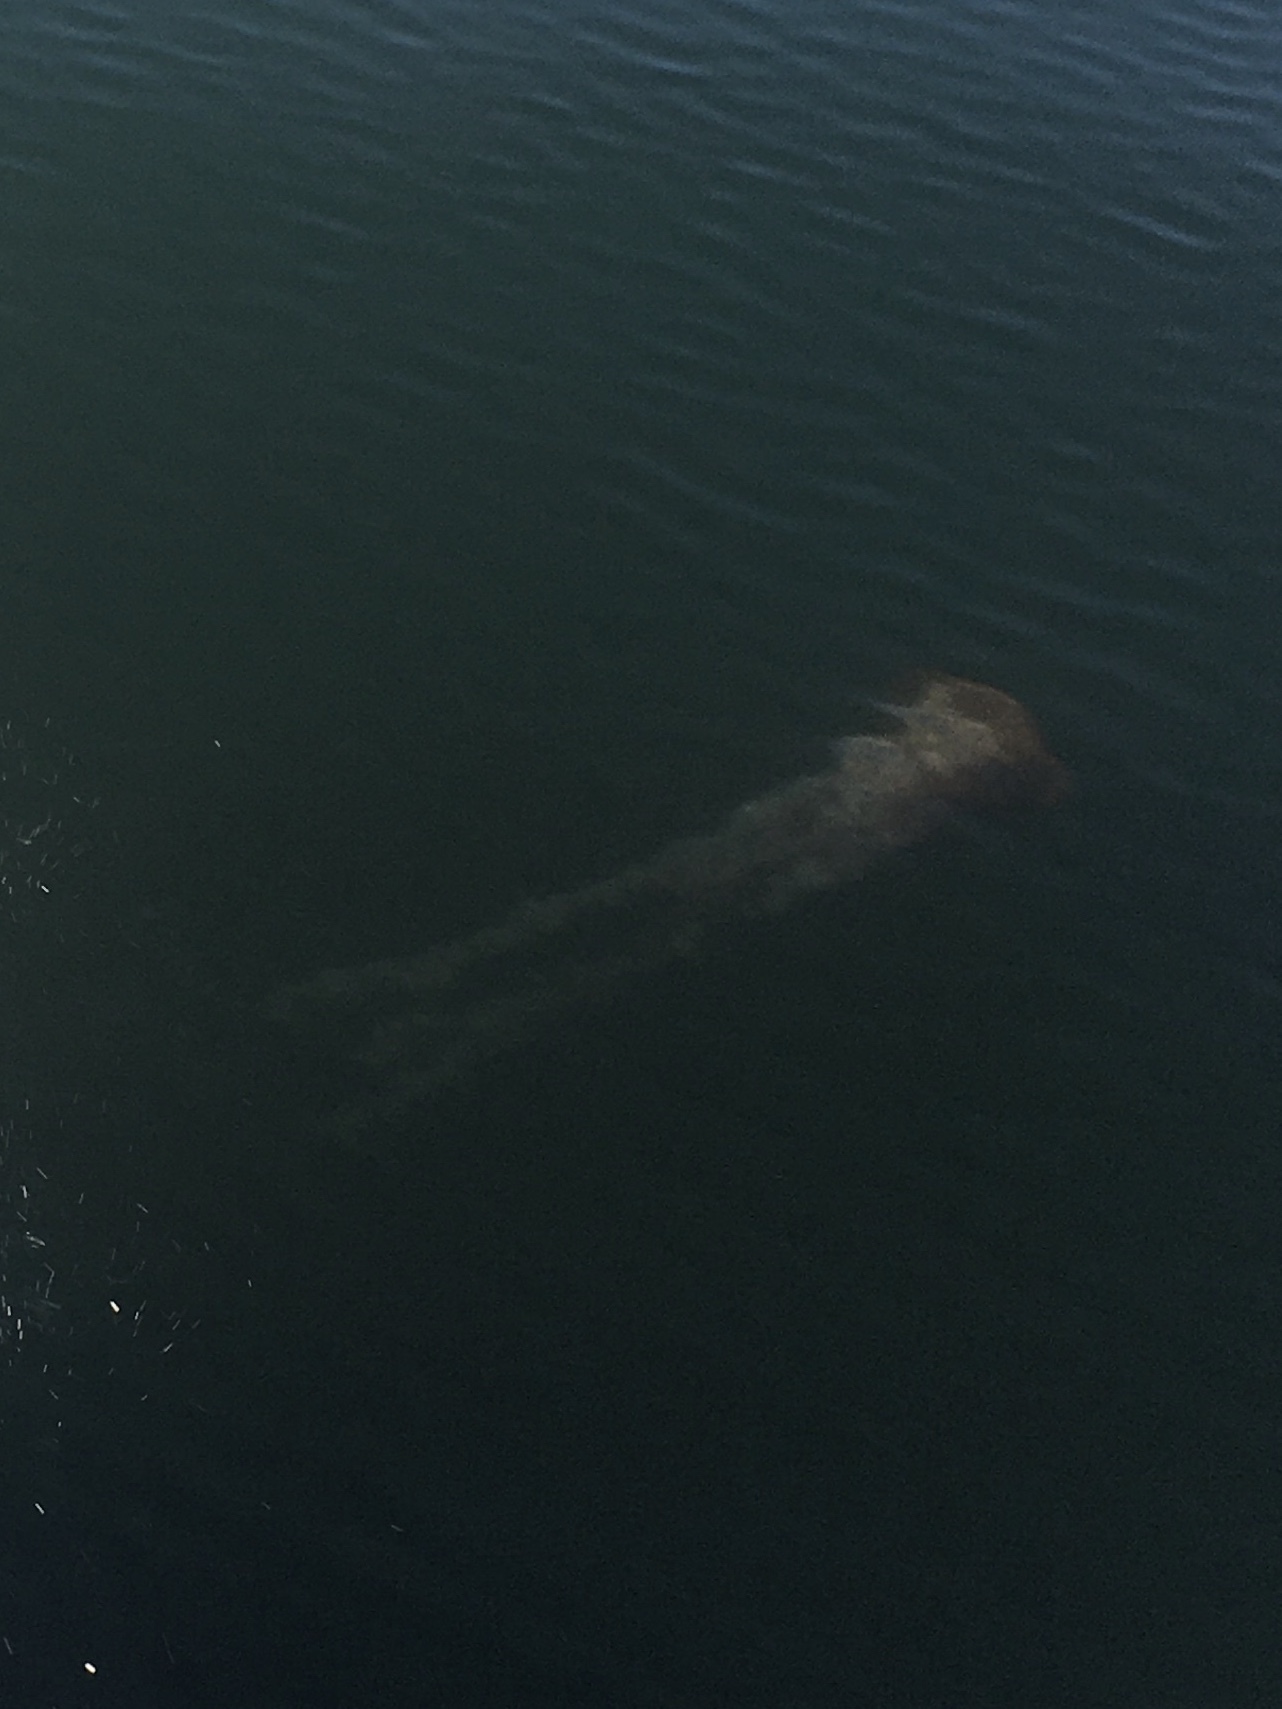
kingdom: Animalia
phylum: Cnidaria
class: Scyphozoa
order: Semaeostomeae
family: Pelagiidae
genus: Chrysaora
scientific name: Chrysaora fuscescens
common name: Sea nettle
